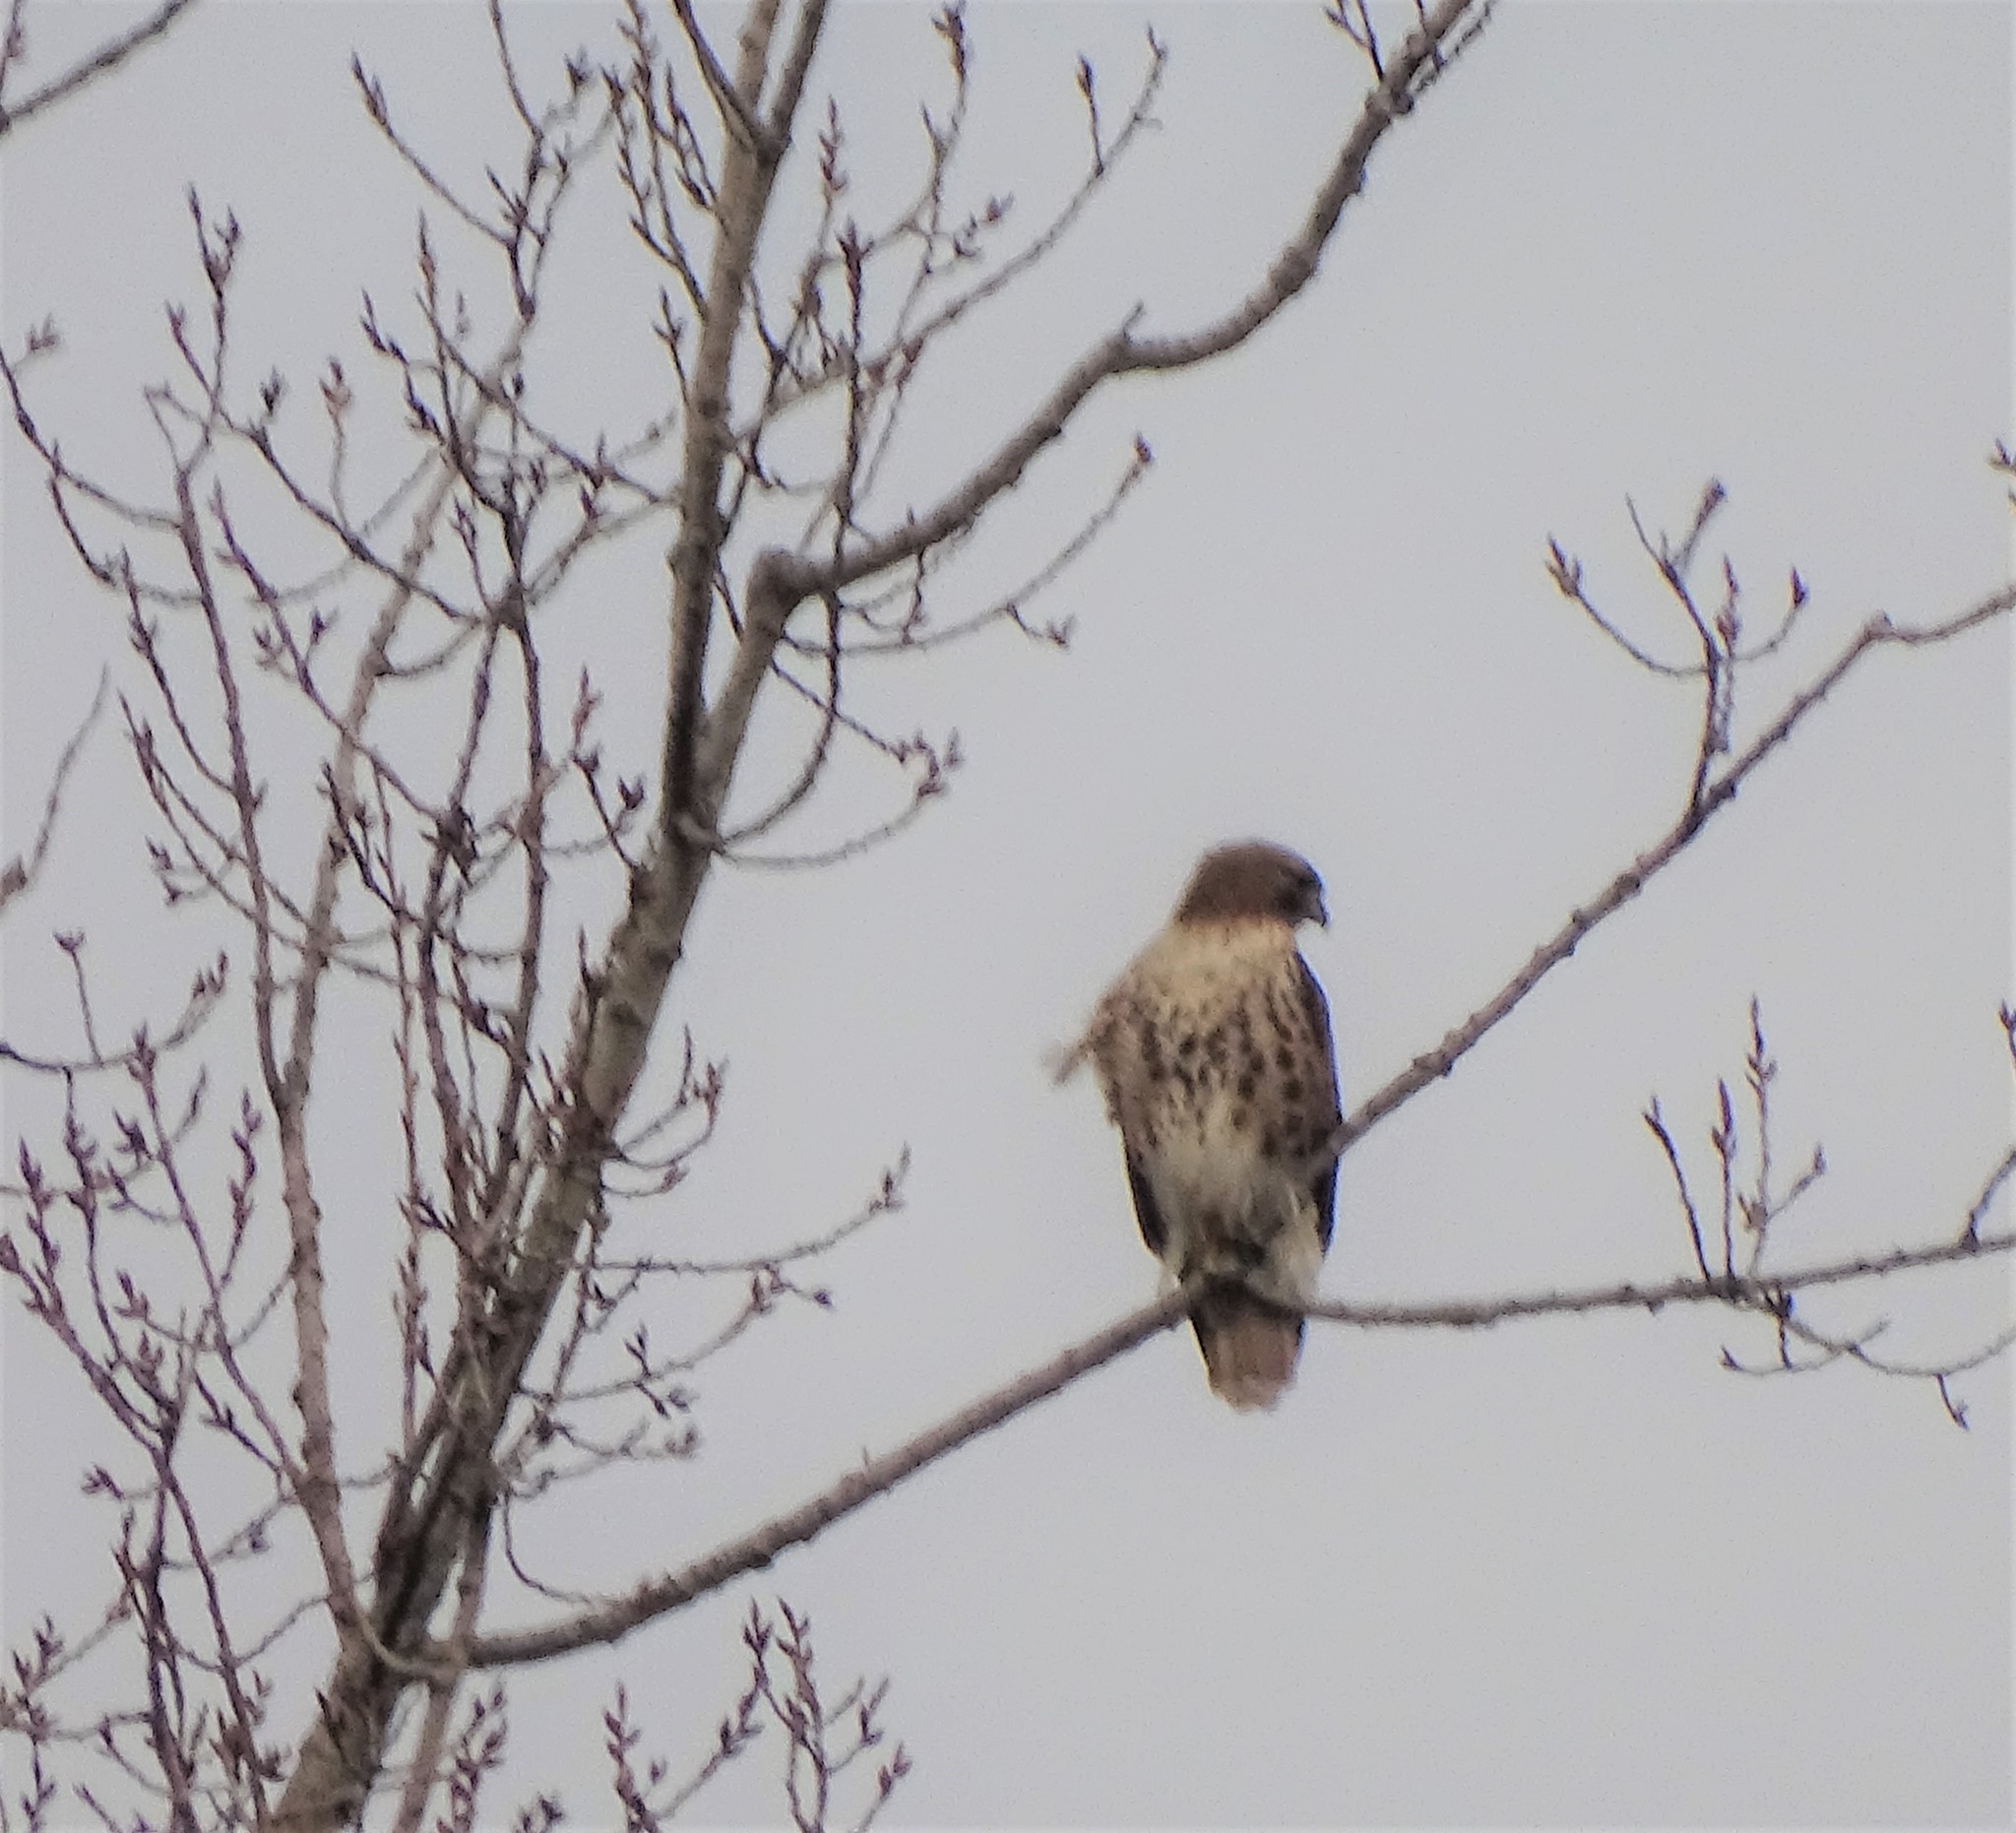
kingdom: Animalia
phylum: Chordata
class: Aves
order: Accipitriformes
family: Accipitridae
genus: Buteo
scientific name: Buteo jamaicensis
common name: Red-tailed hawk
